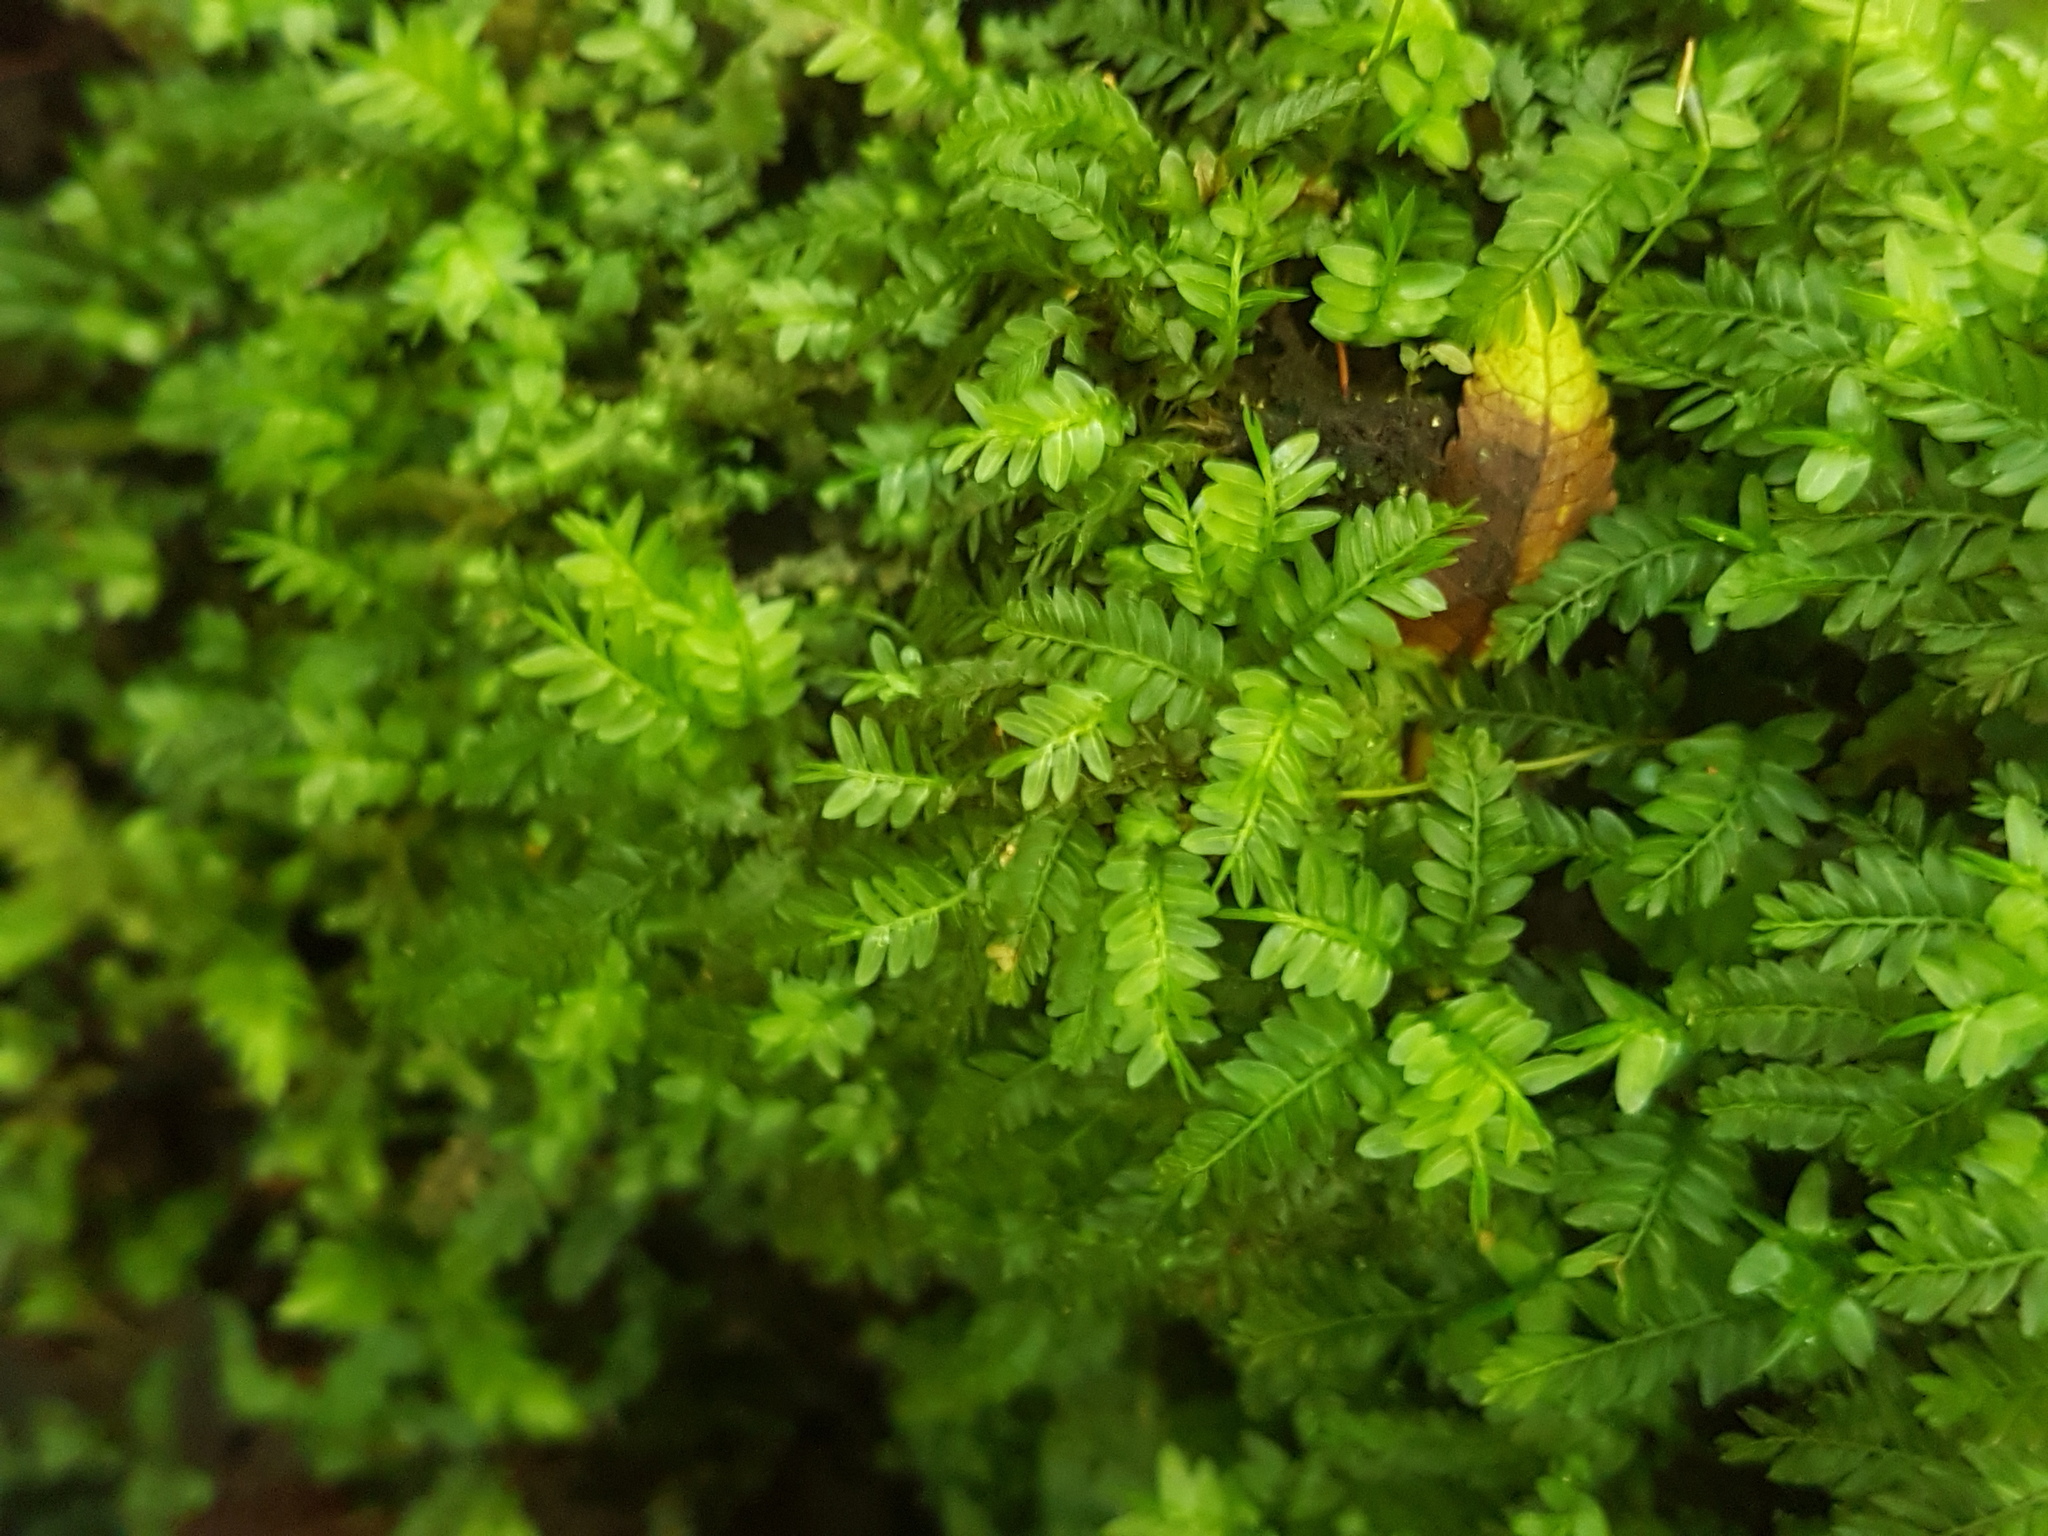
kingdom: Plantae
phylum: Bryophyta
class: Bryopsida
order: Rhizogoniales
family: Rhizogoniaceae
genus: Rhizogonium
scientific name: Rhizogonium distichum
